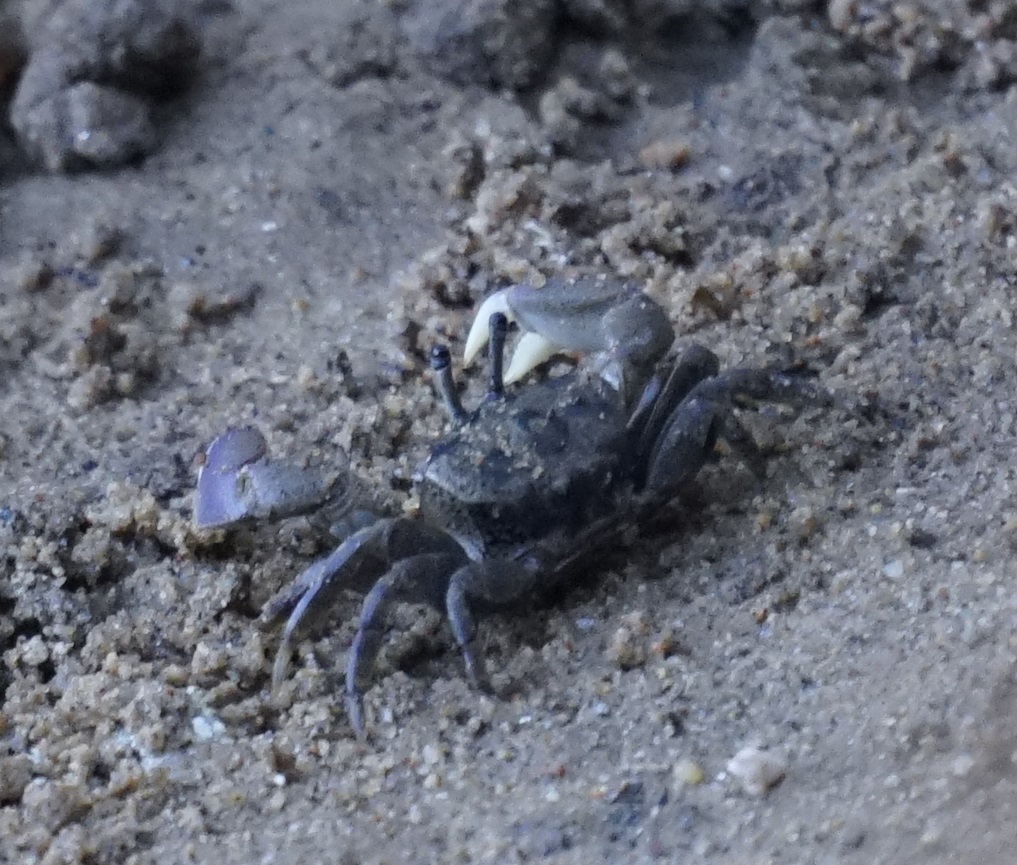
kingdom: Animalia
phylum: Arthropoda
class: Malacostraca
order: Decapoda
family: Heloeciidae
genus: Heloecius
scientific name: Heloecius cordiformis
